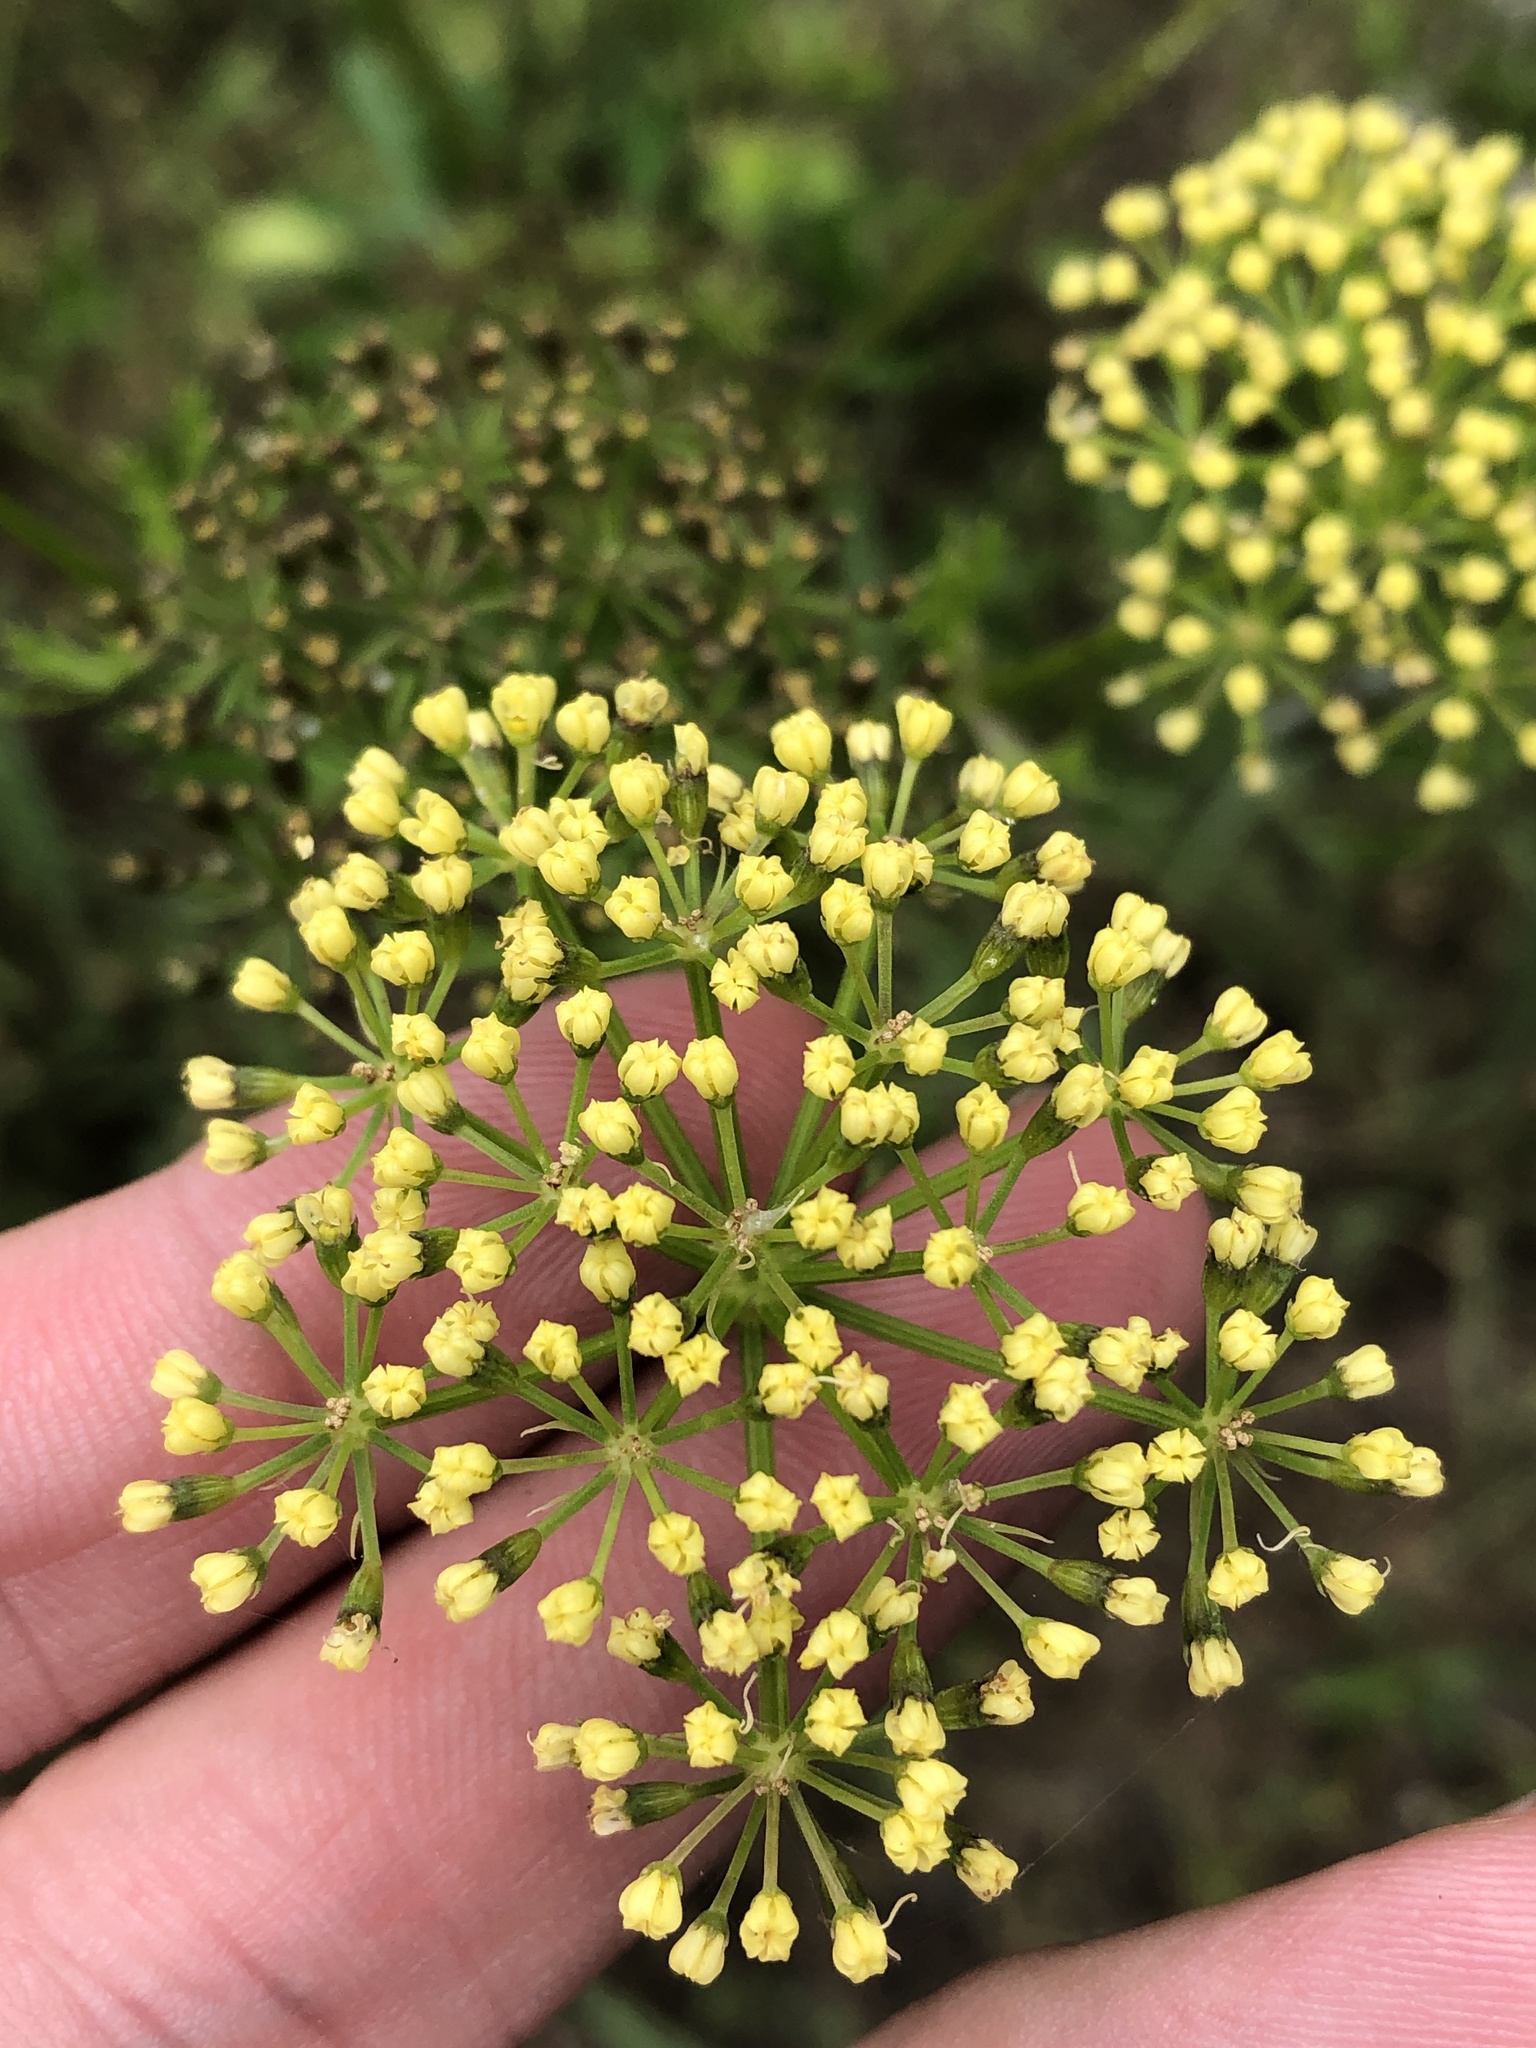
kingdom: Plantae
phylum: Tracheophyta
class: Magnoliopsida
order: Apiales
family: Apiaceae
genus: Polytaenia
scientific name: Polytaenia texana
